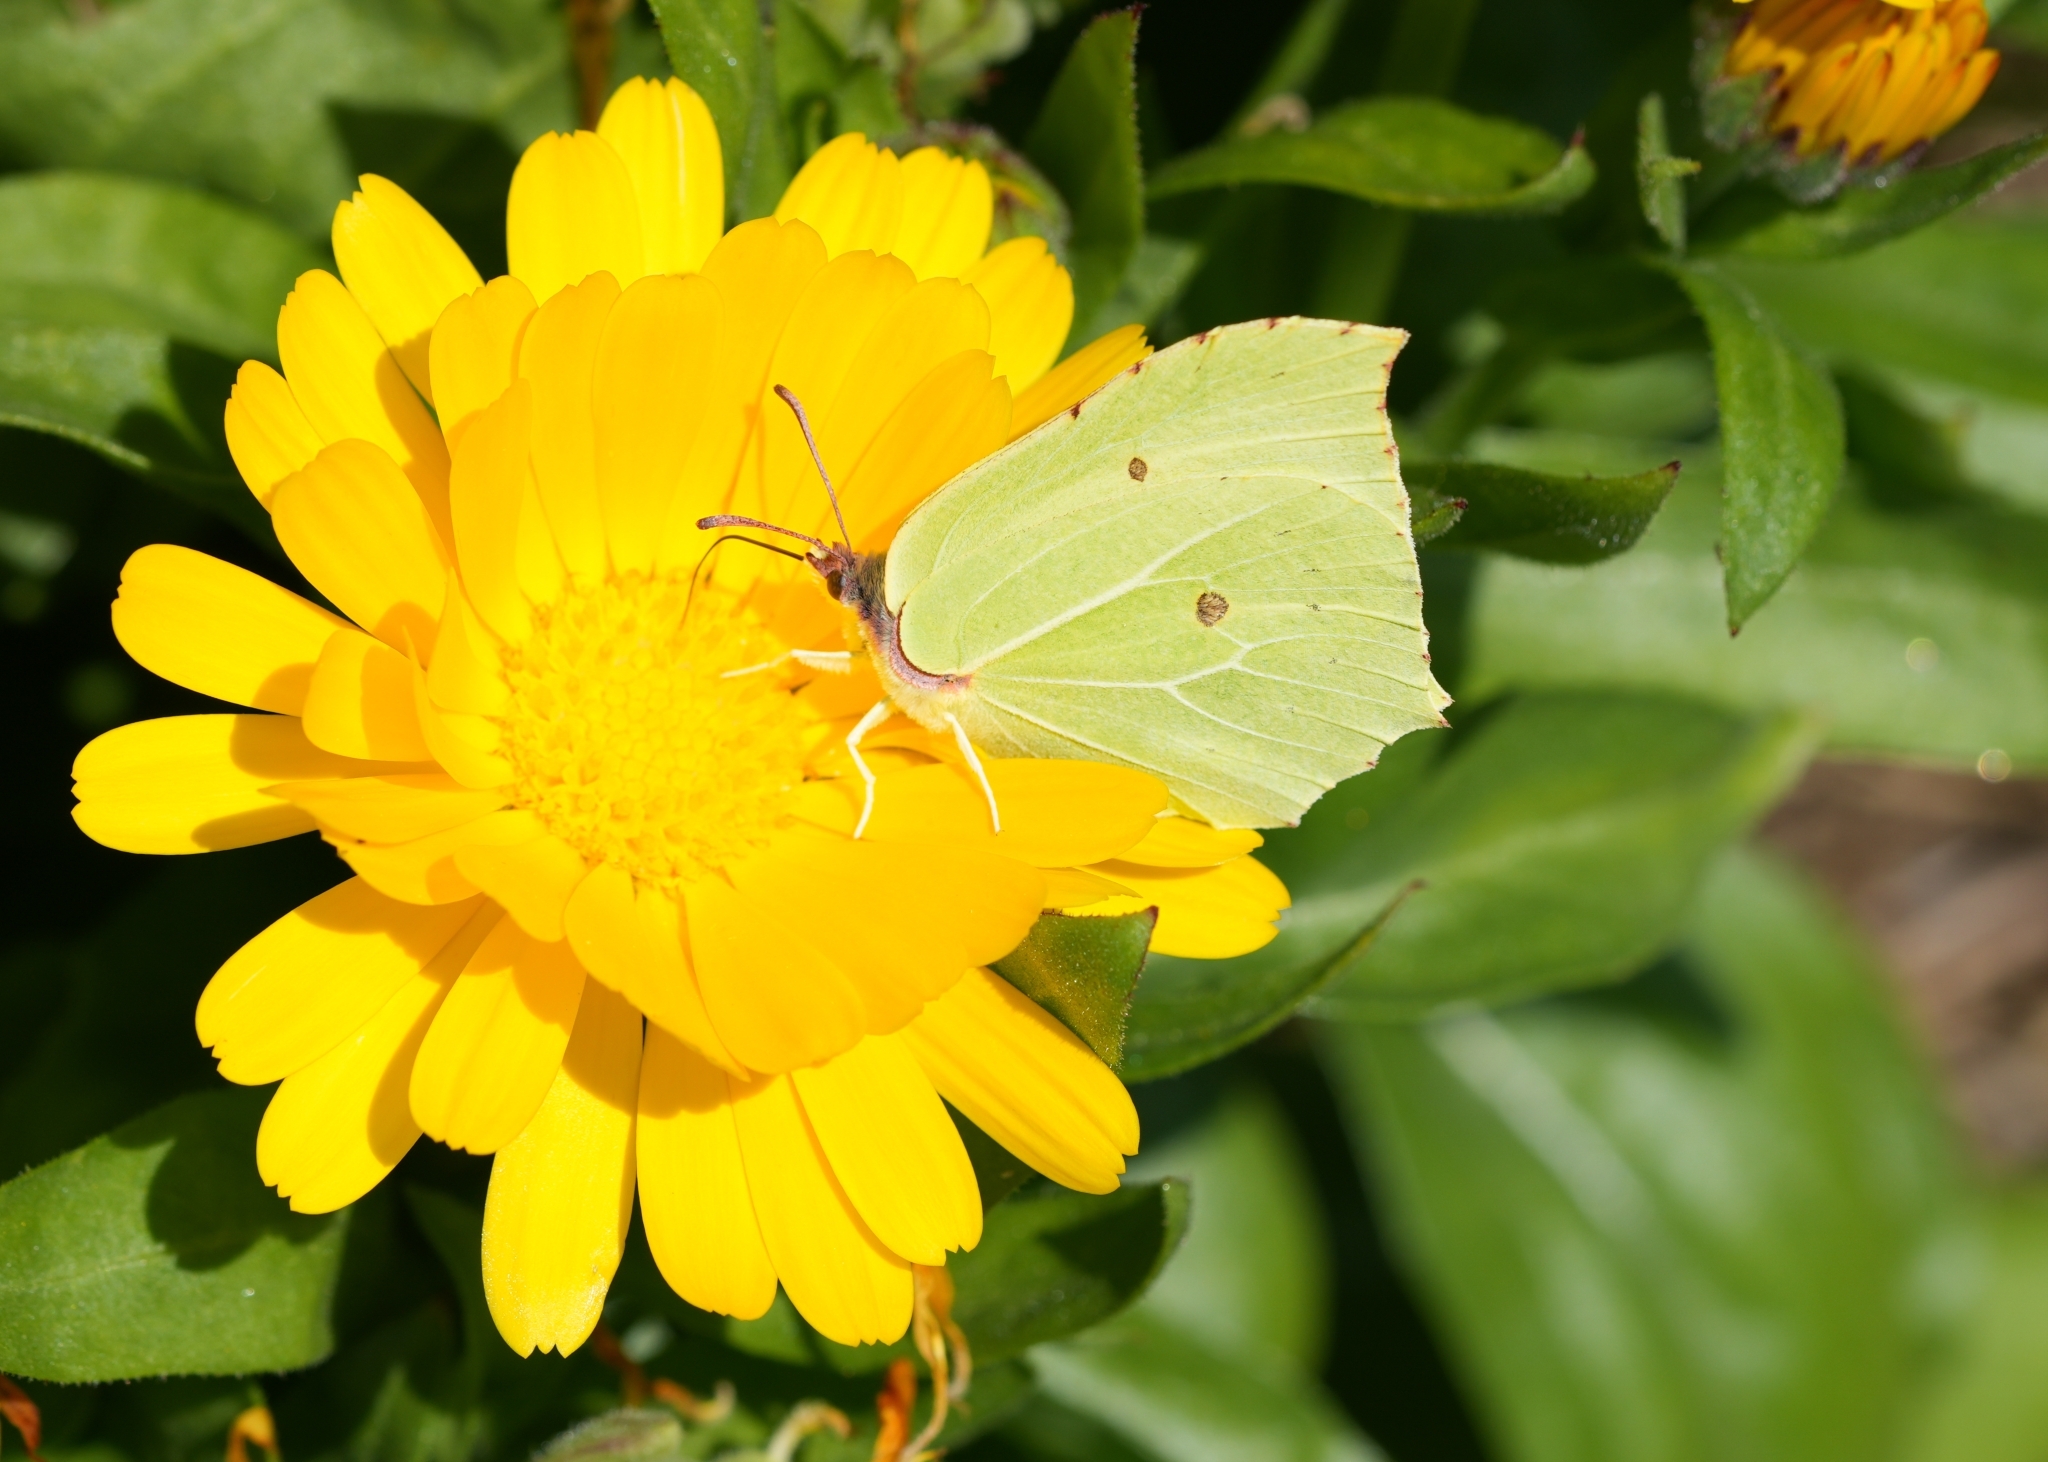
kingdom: Animalia
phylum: Arthropoda
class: Insecta
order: Lepidoptera
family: Pieridae
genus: Gonepteryx
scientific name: Gonepteryx rhamni
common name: Brimstone
